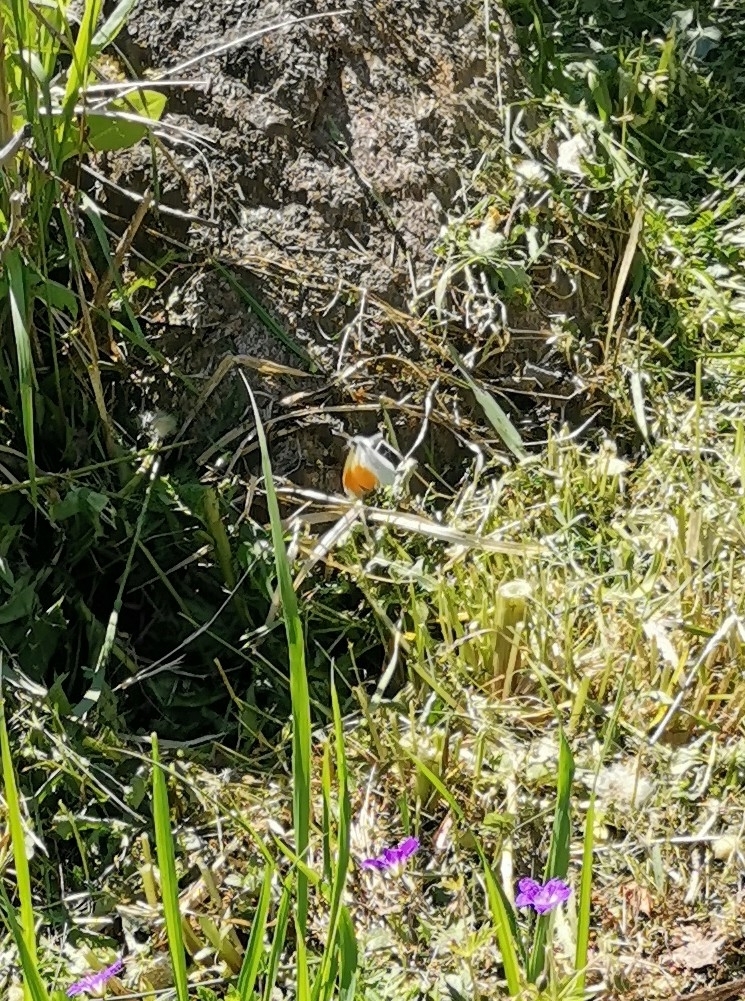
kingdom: Animalia
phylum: Arthropoda
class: Insecta
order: Lepidoptera
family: Pieridae
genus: Anthocharis
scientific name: Anthocharis cardamines
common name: Orange-tip
